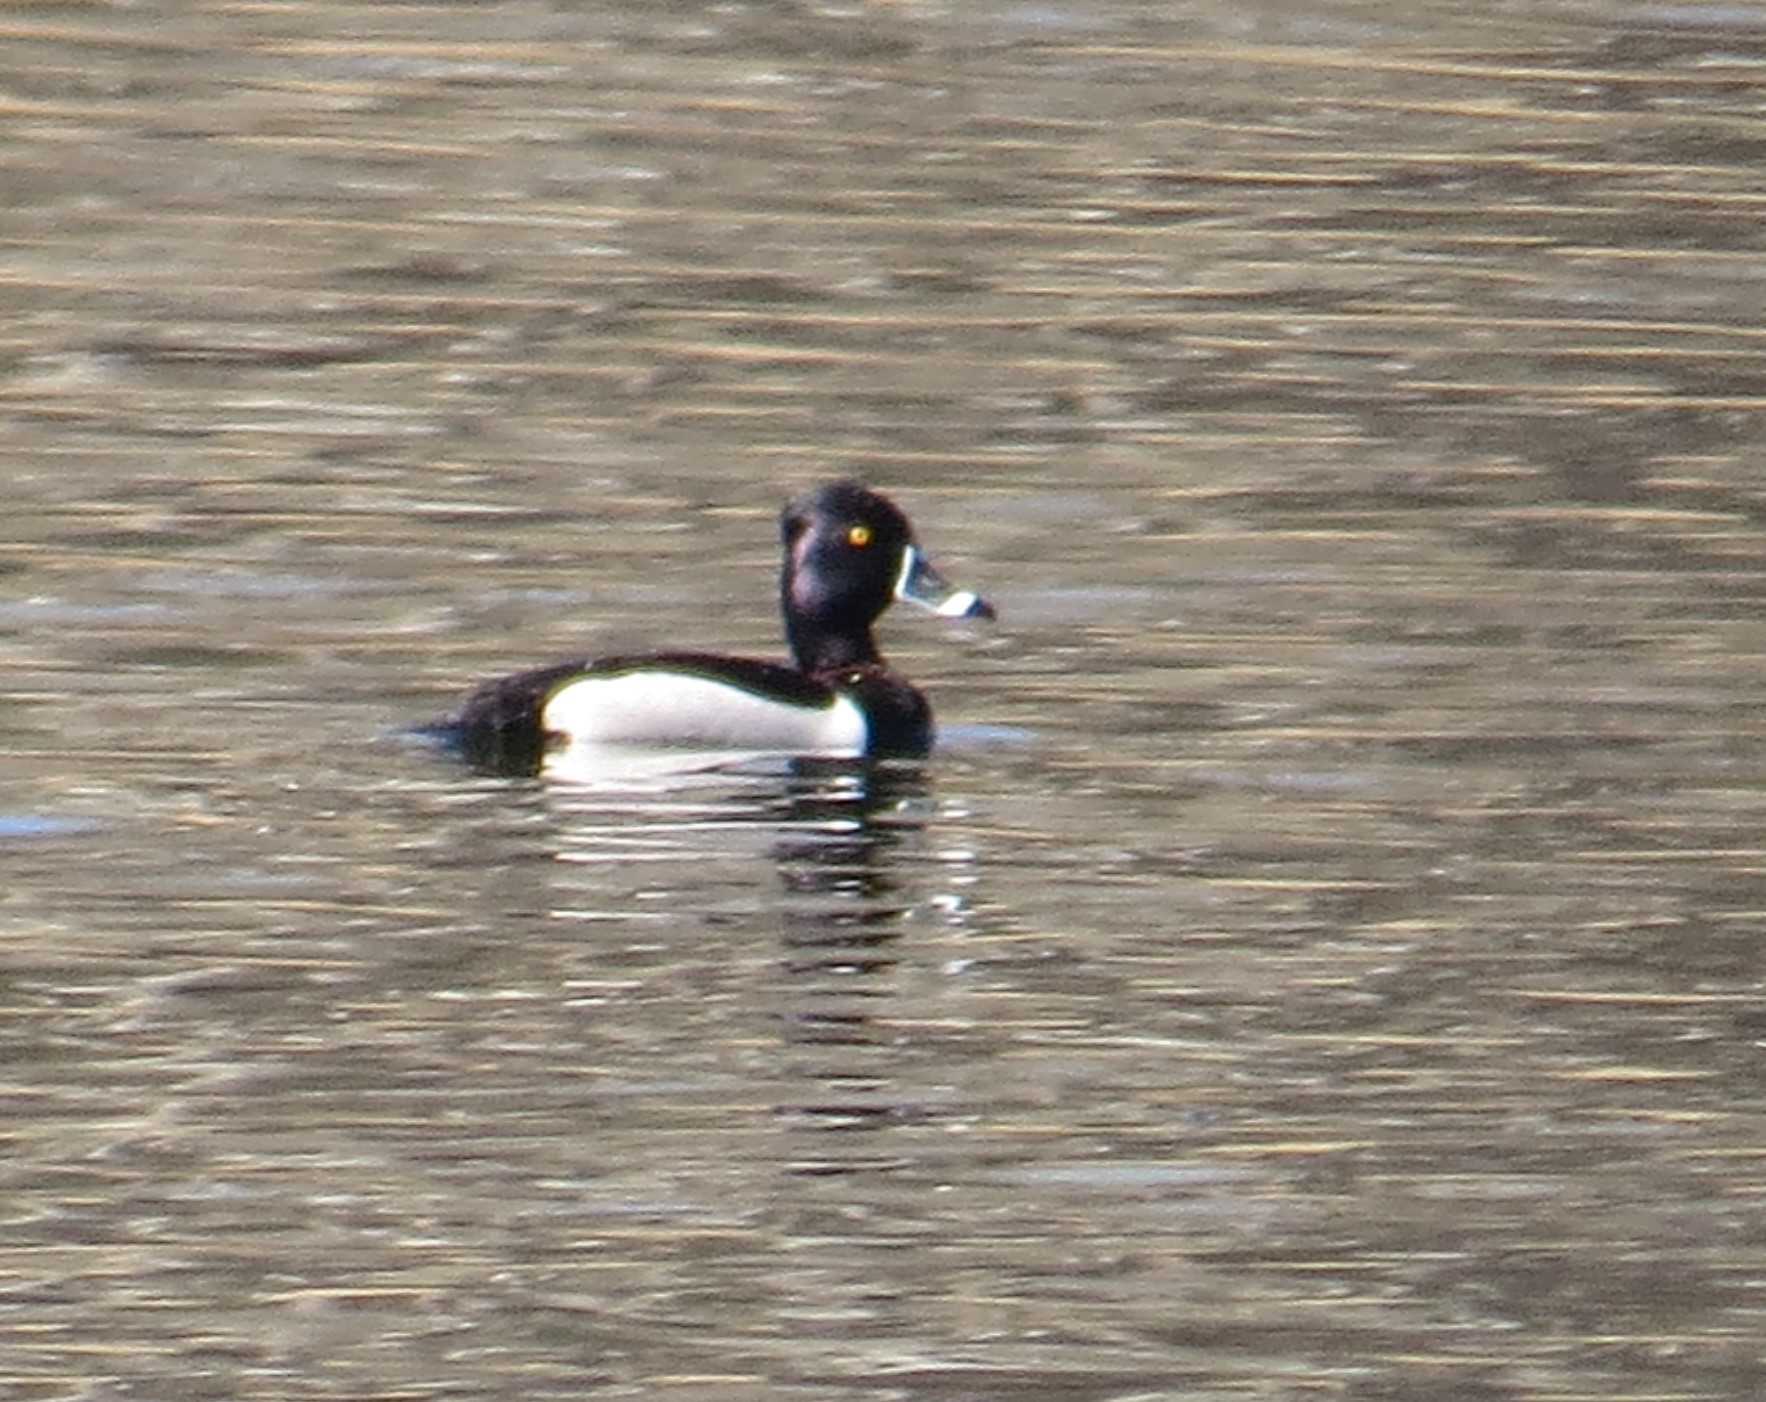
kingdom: Animalia
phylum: Chordata
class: Aves
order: Anseriformes
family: Anatidae
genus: Aythya
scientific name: Aythya collaris
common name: Ring-necked duck
